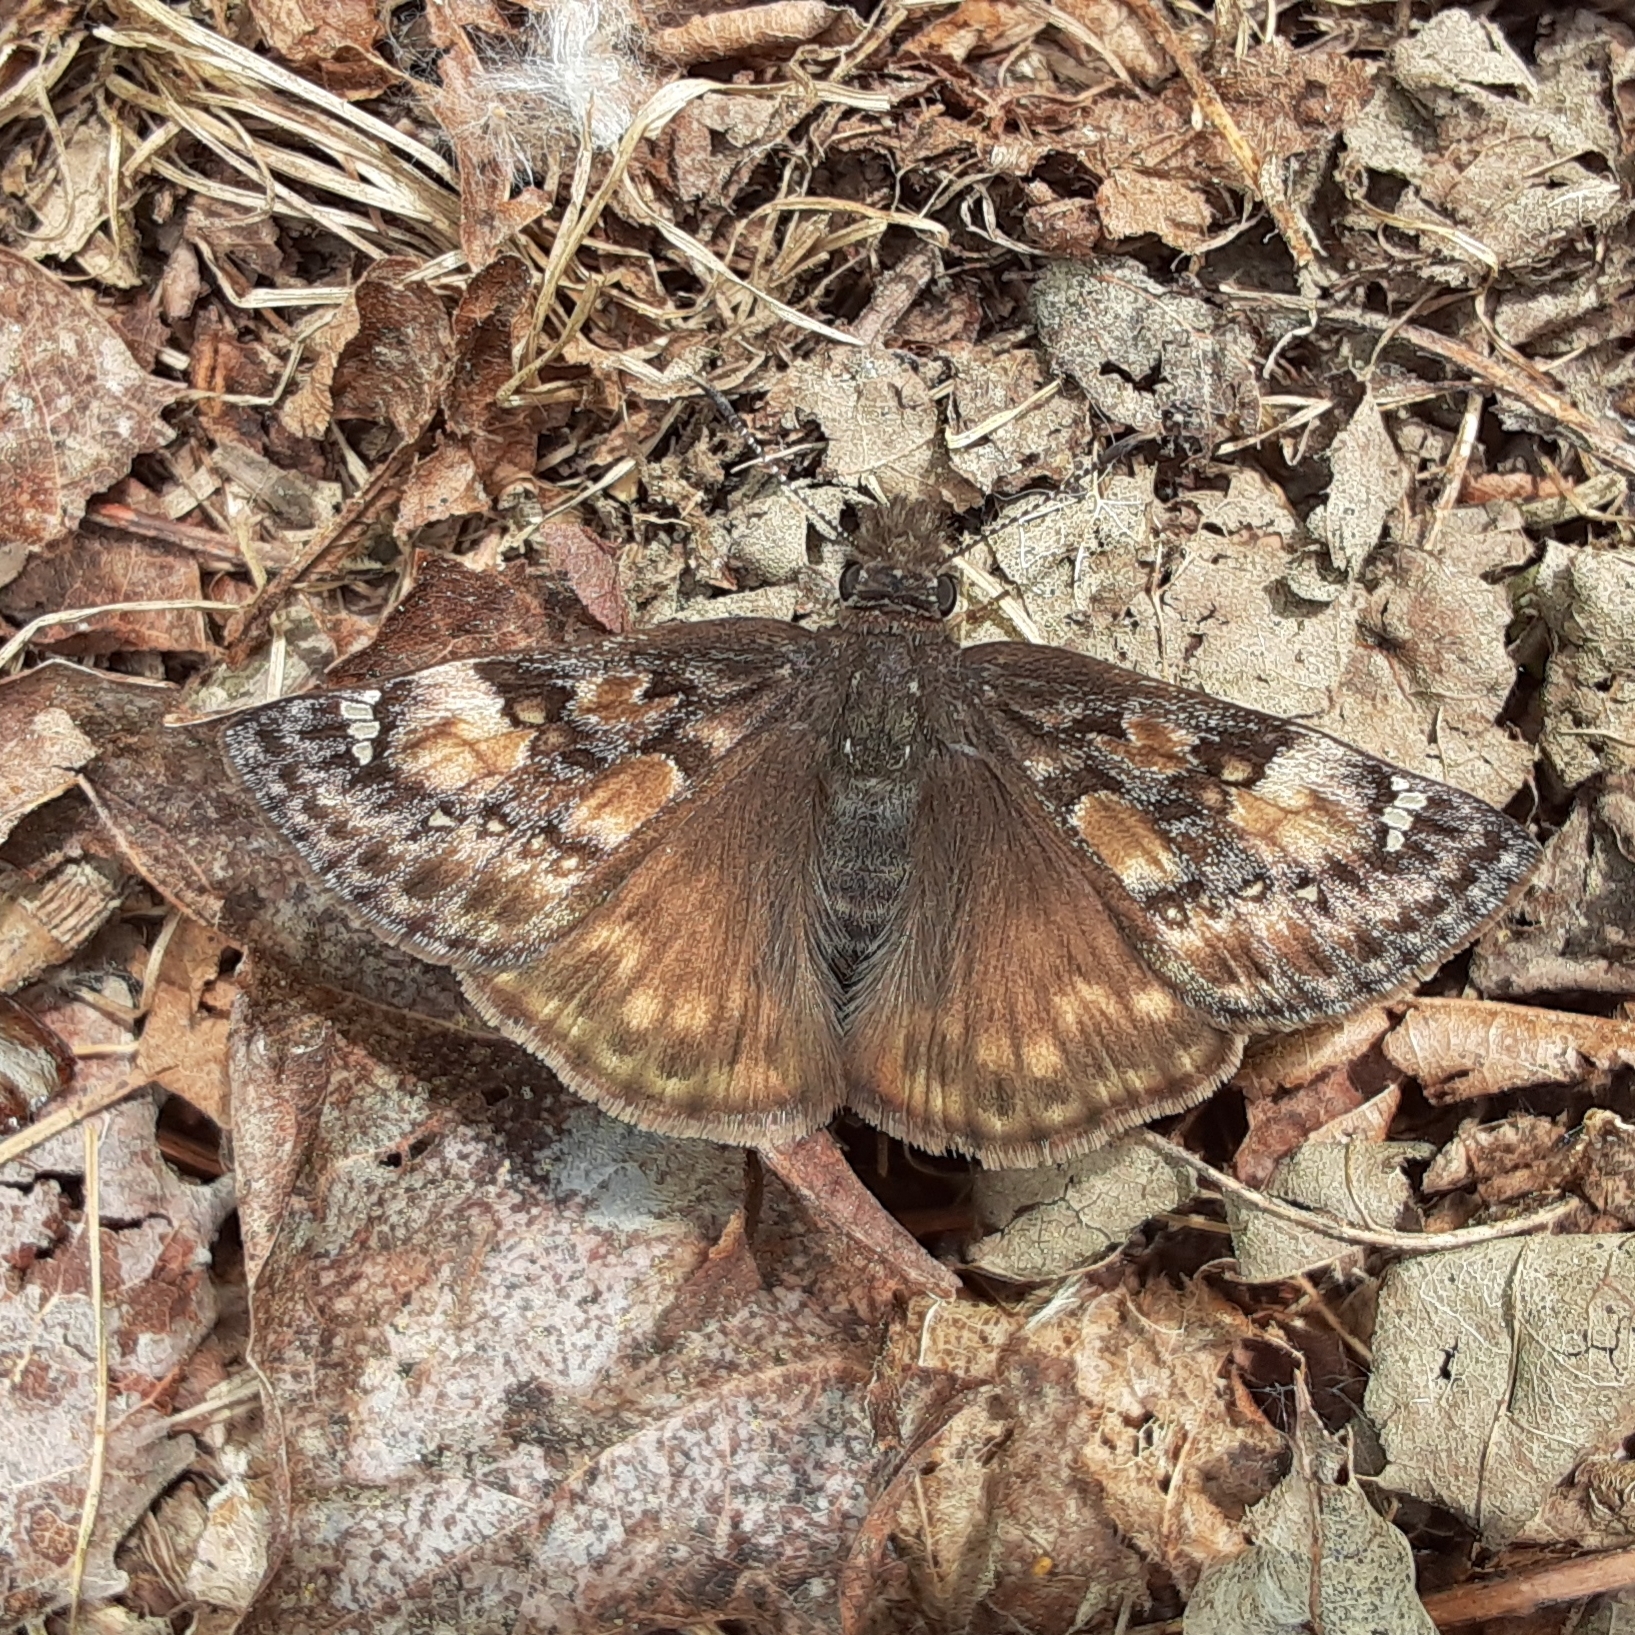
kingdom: Animalia
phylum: Arthropoda
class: Insecta
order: Lepidoptera
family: Hesperiidae
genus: Erynnis
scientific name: Erynnis juvenalis
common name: Juvenal's duskywing
